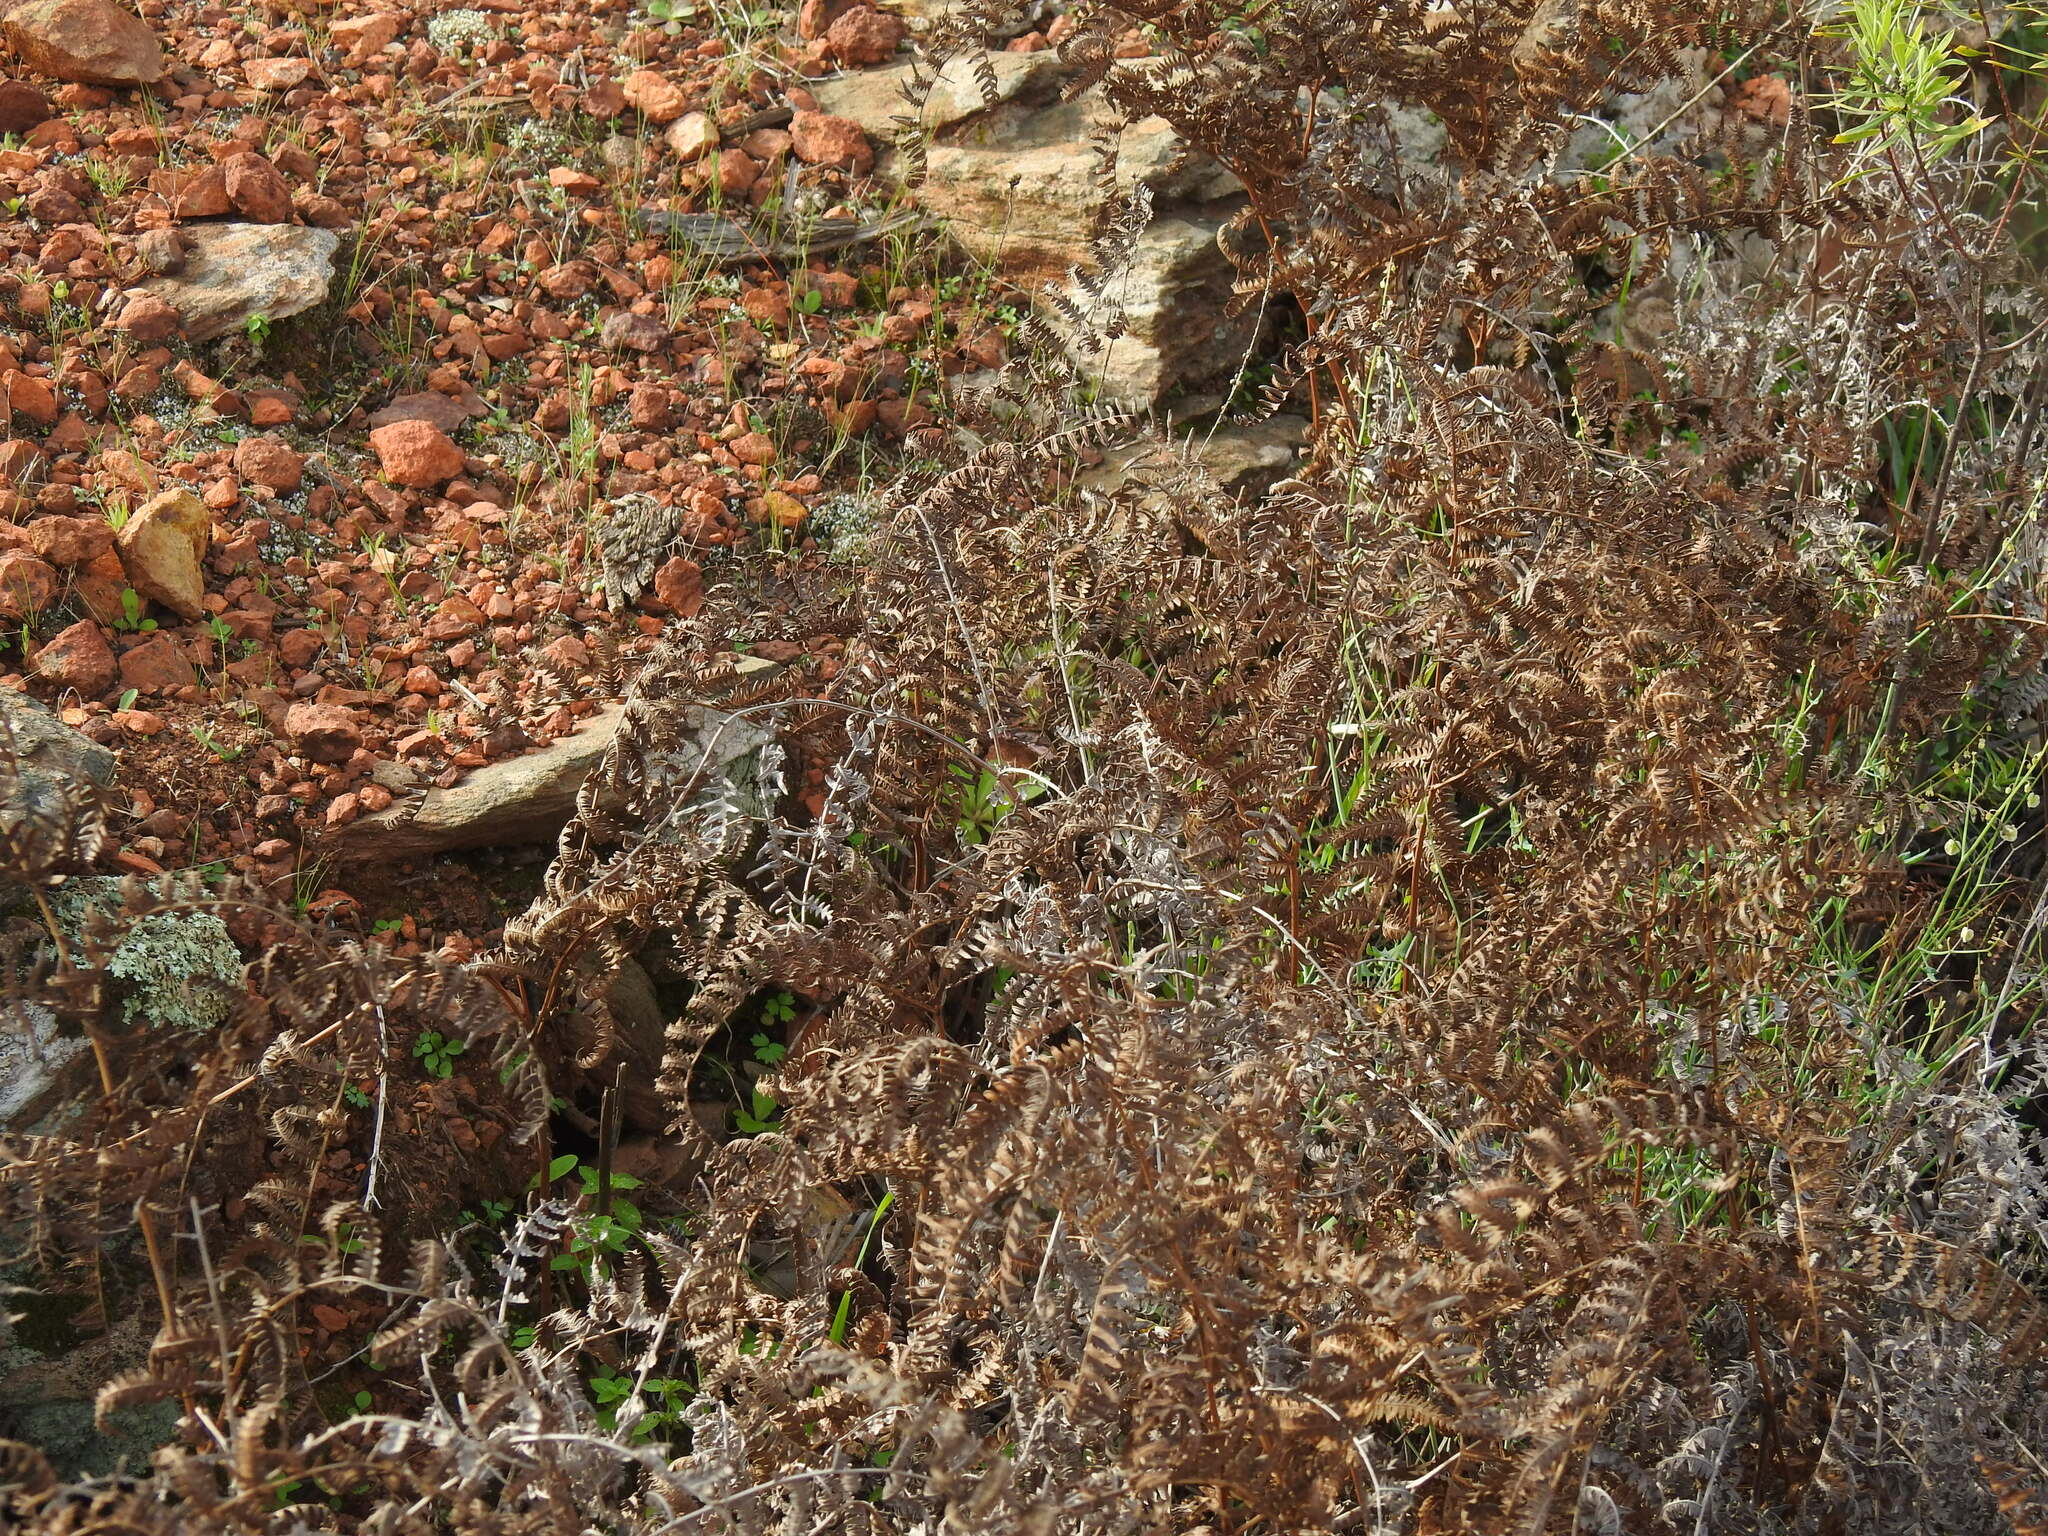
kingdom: Plantae
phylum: Tracheophyta
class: Polypodiopsida
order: Polypodiales
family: Dennstaedtiaceae
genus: Pteridium
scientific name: Pteridium aquilinum
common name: Bracken
